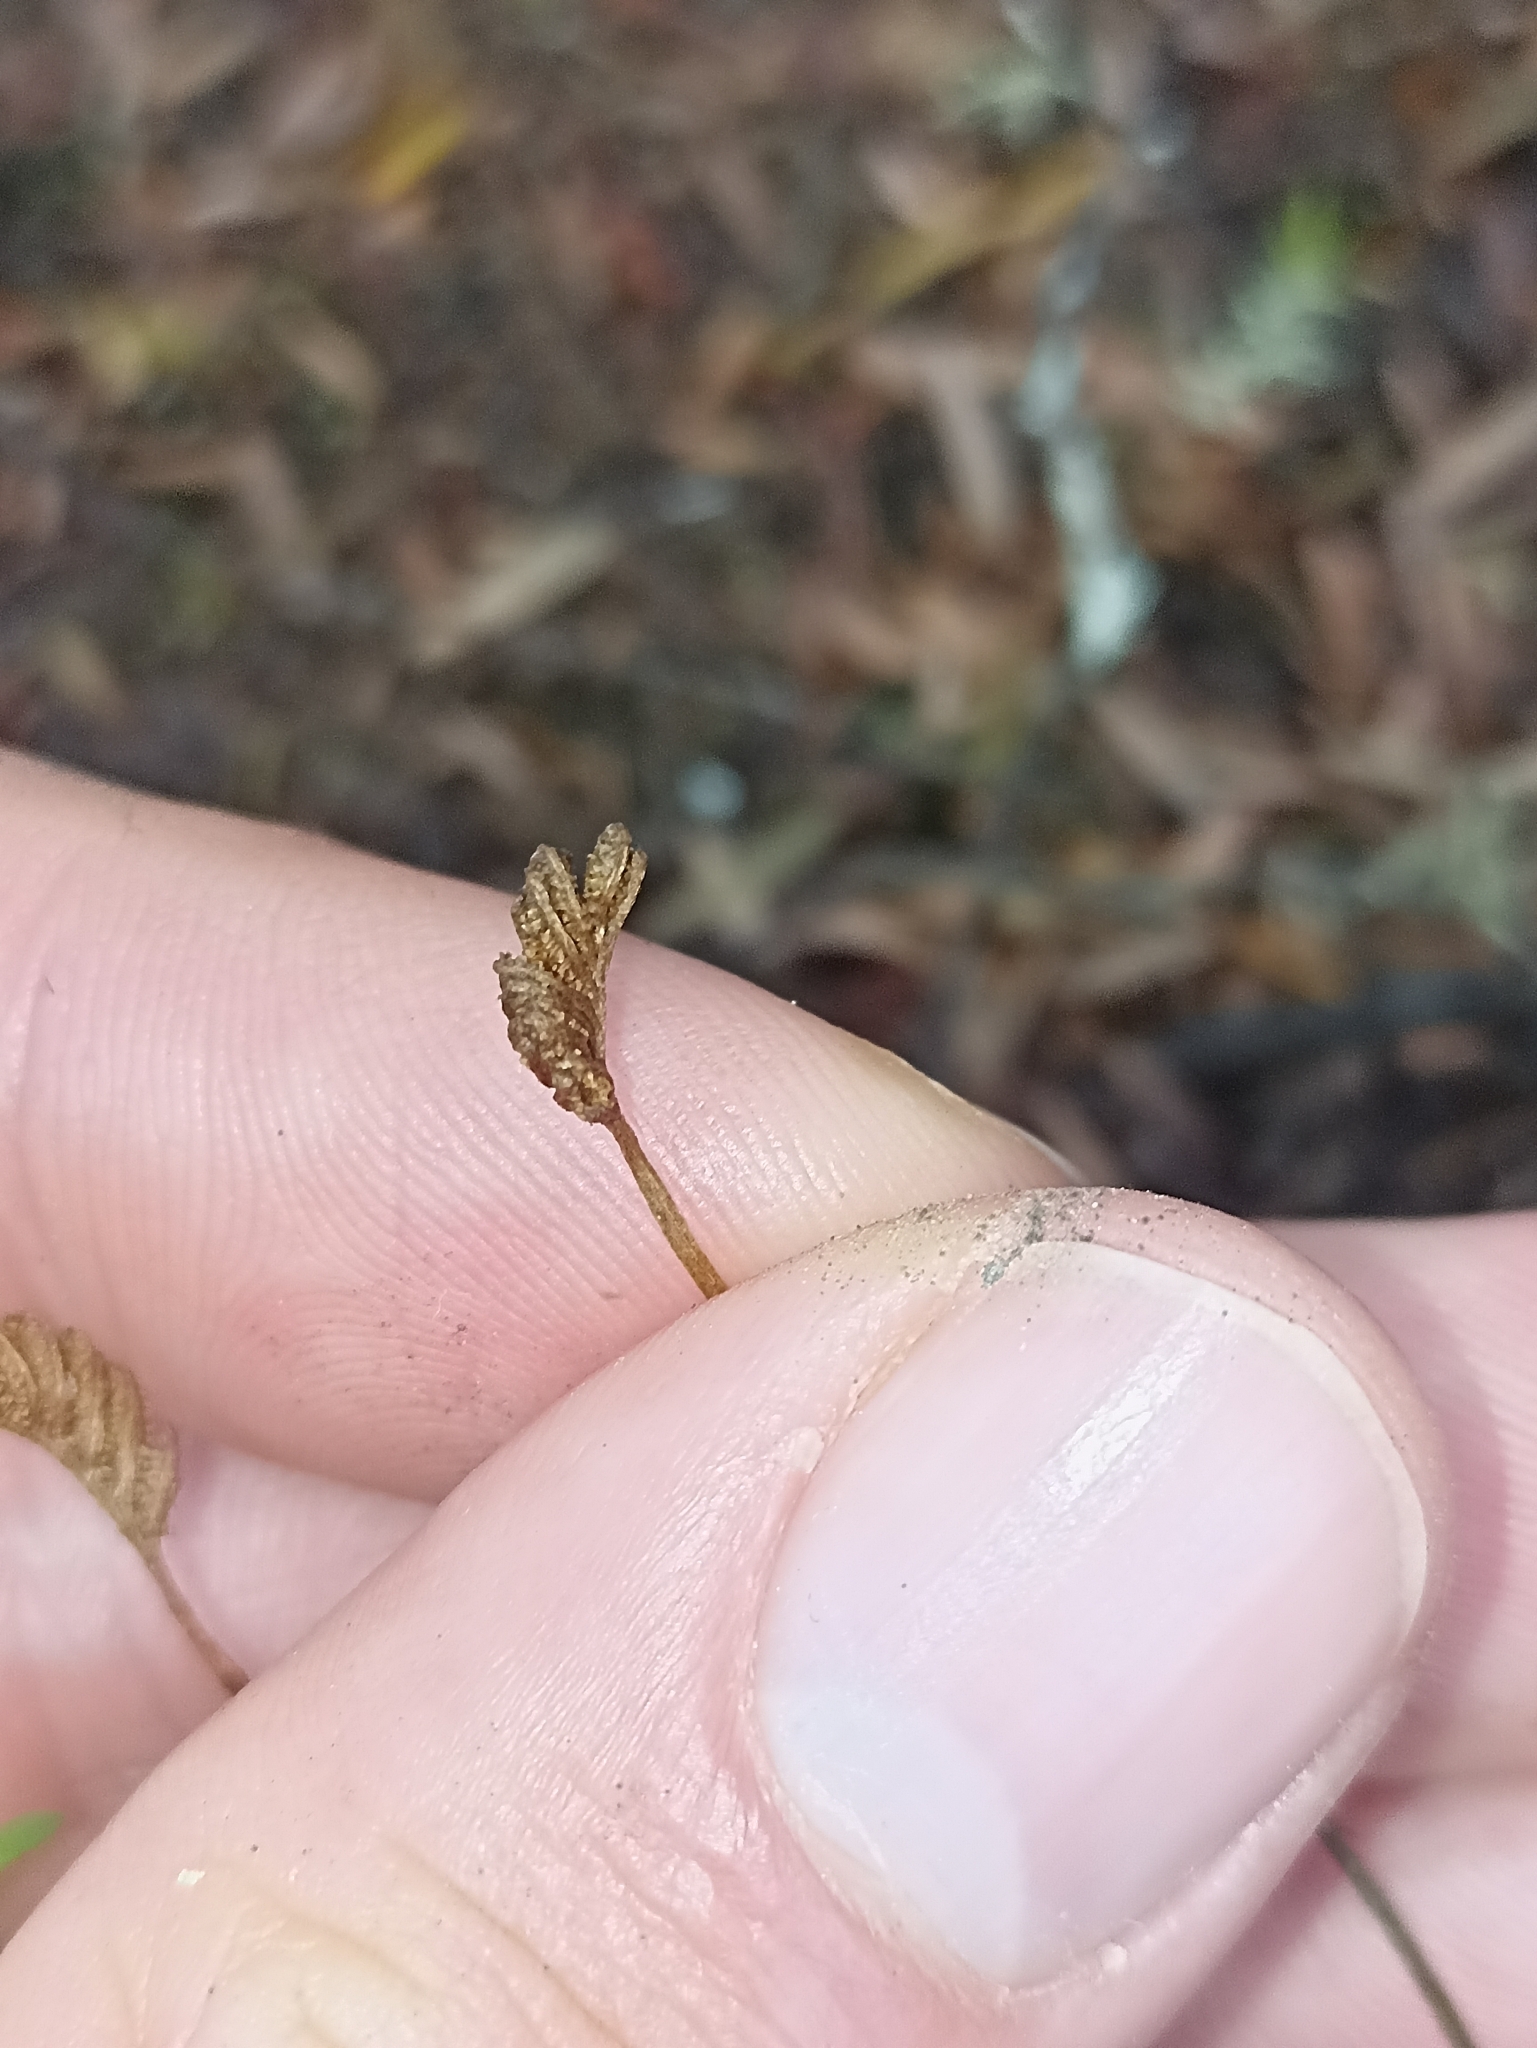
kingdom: Plantae
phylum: Tracheophyta
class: Polypodiopsida
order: Schizaeales
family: Schizaeaceae
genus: Schizaea
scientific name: Schizaea bifida
